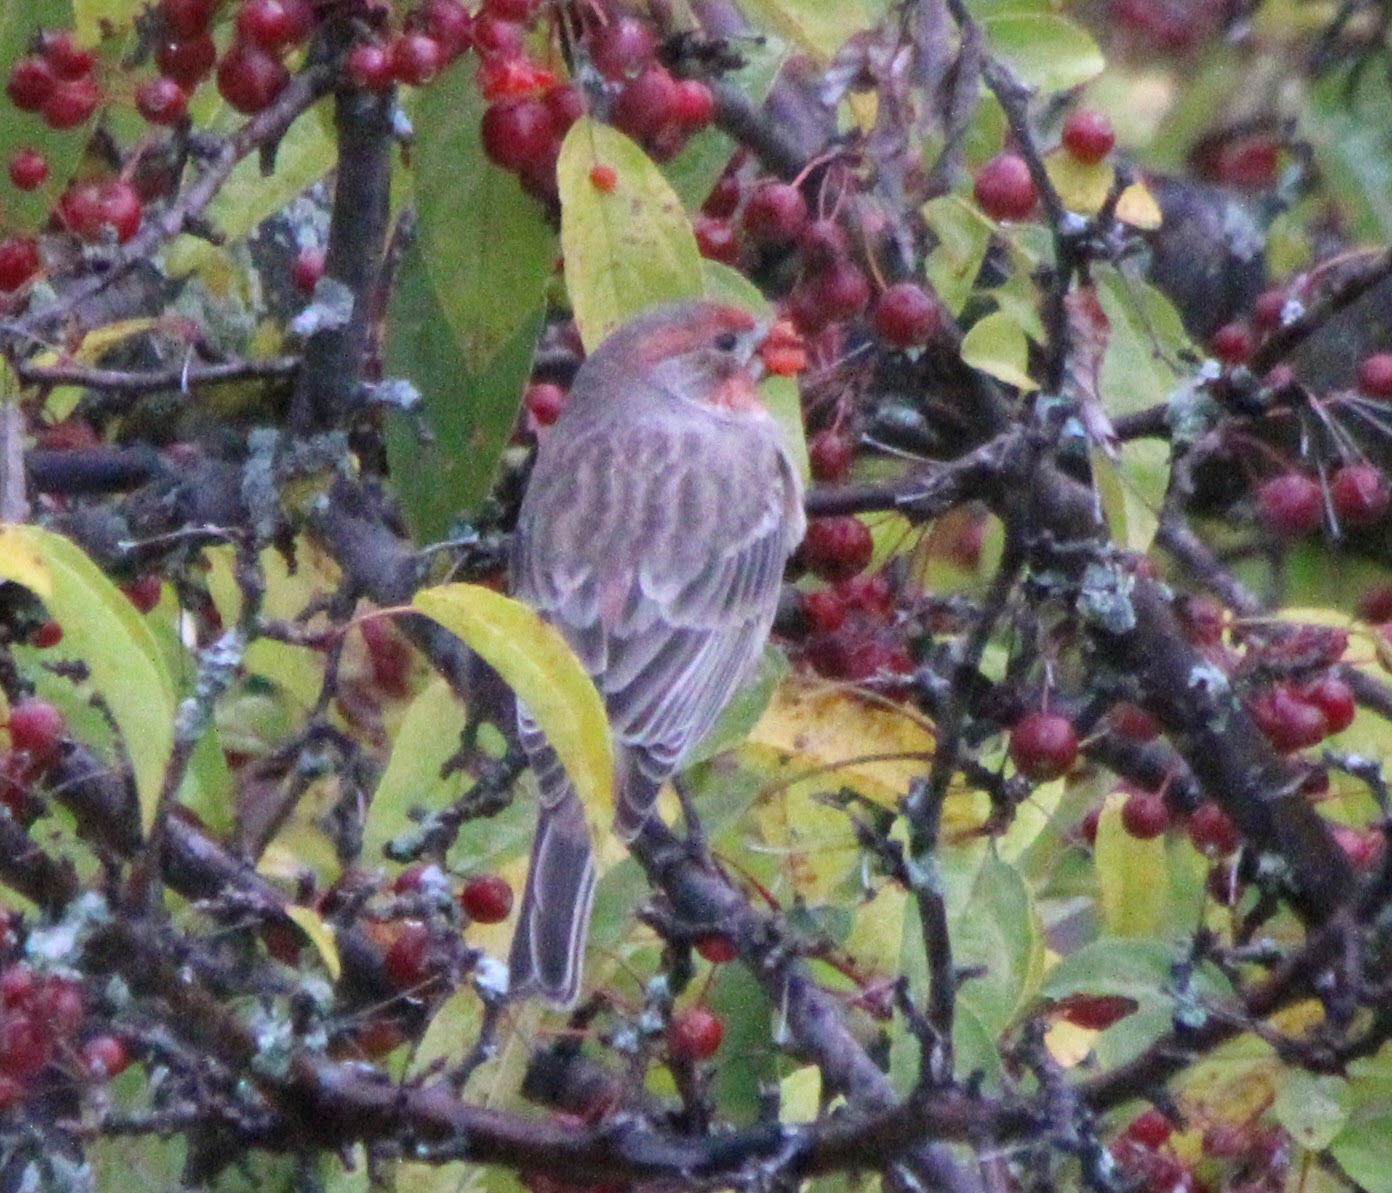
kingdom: Animalia
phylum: Chordata
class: Aves
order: Passeriformes
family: Fringillidae
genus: Haemorhous
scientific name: Haemorhous mexicanus
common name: House finch
